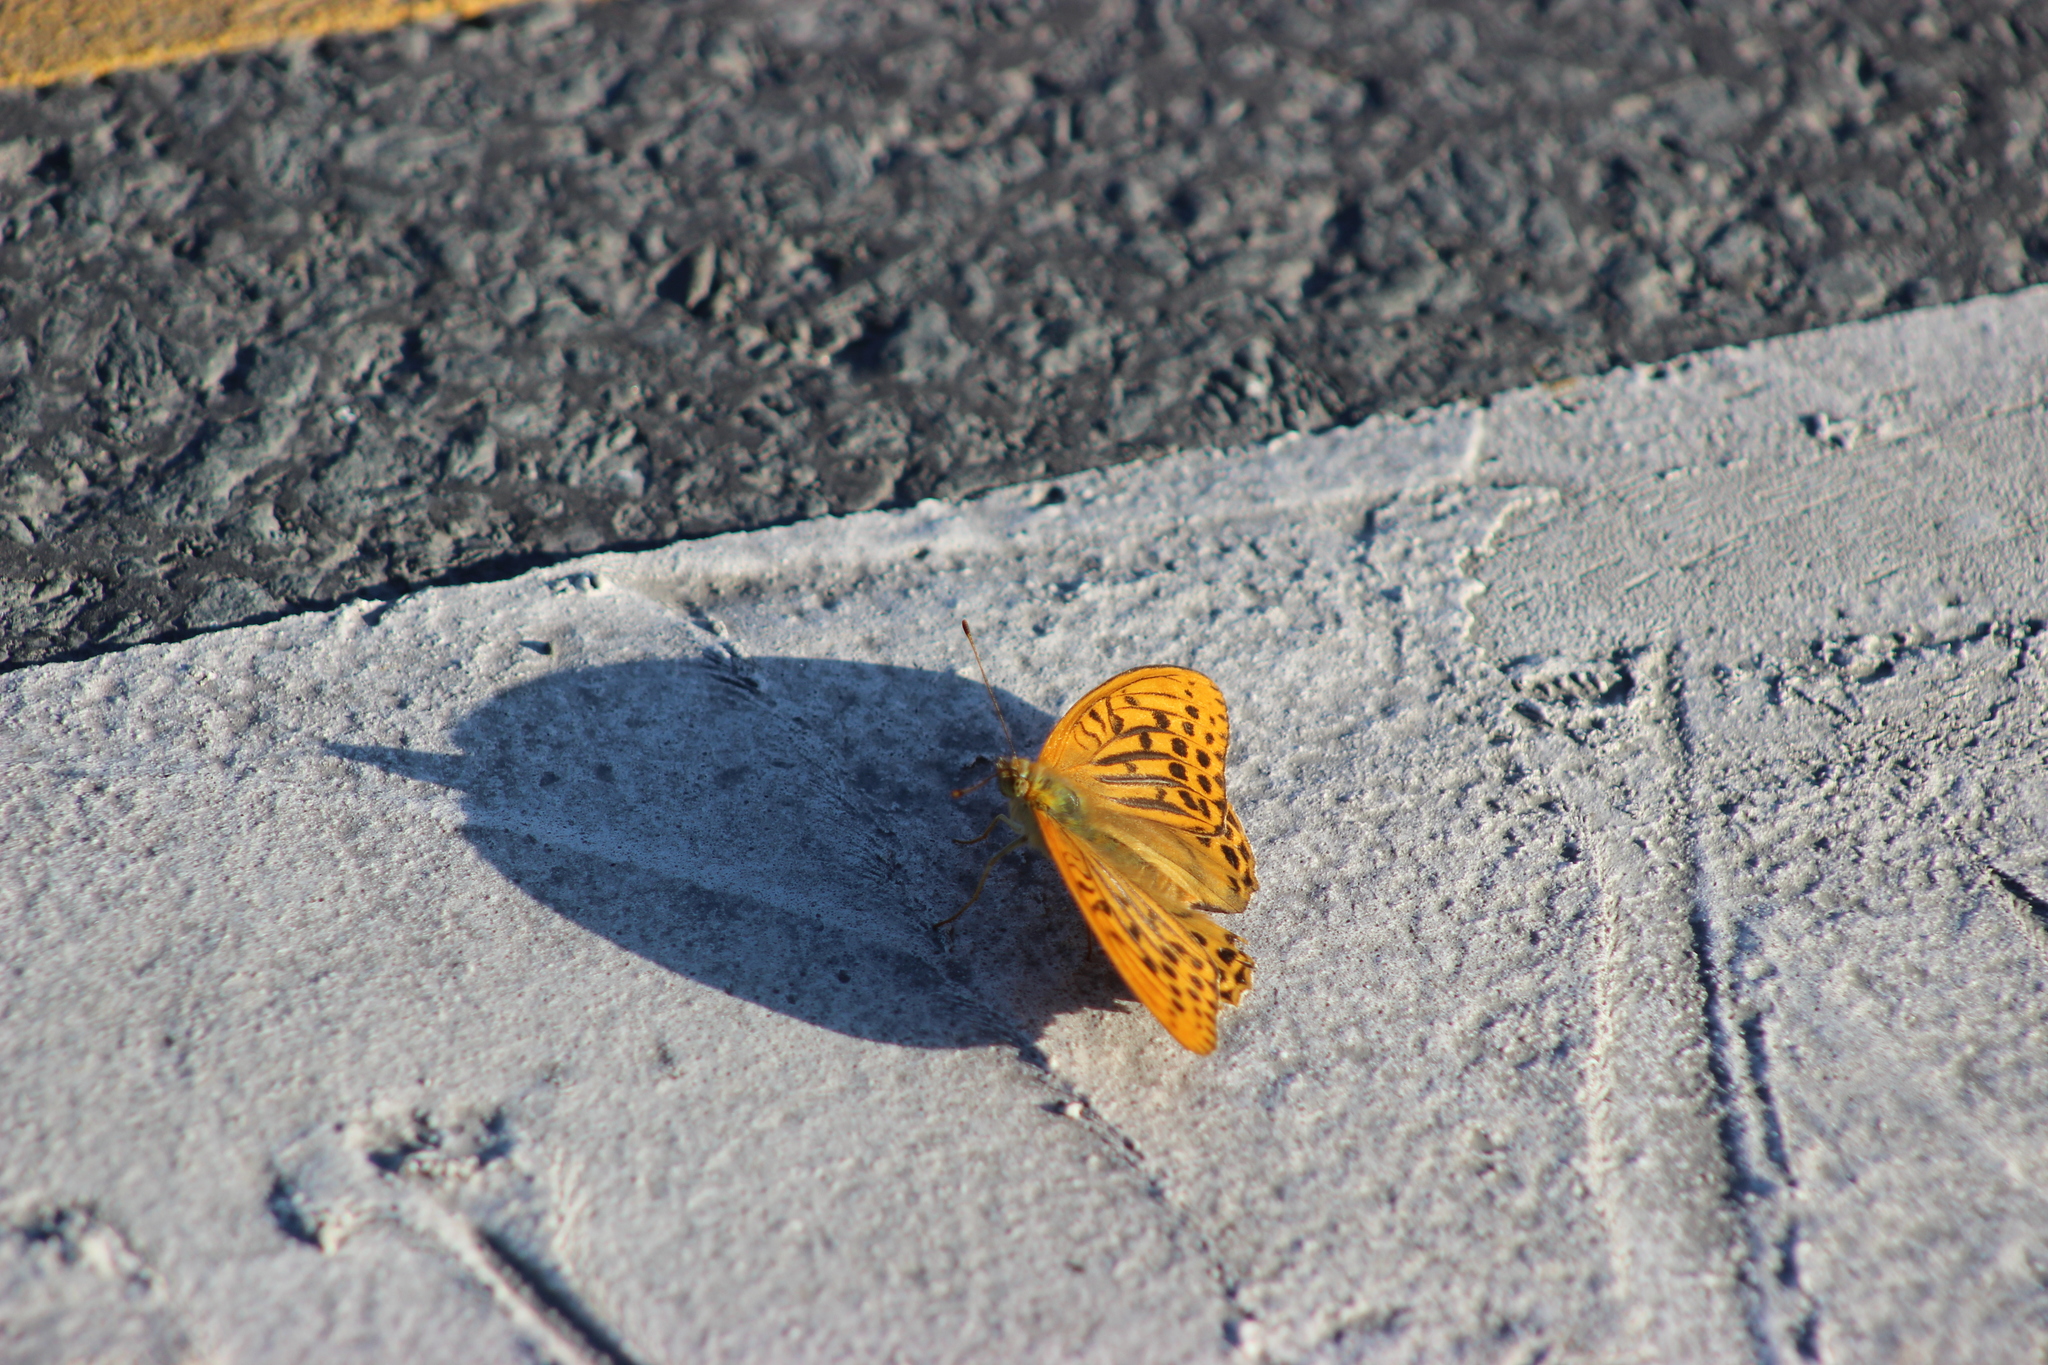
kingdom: Animalia
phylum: Arthropoda
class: Insecta
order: Lepidoptera
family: Nymphalidae
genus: Argynnis
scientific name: Argynnis paphia
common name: Silver-washed fritillary
